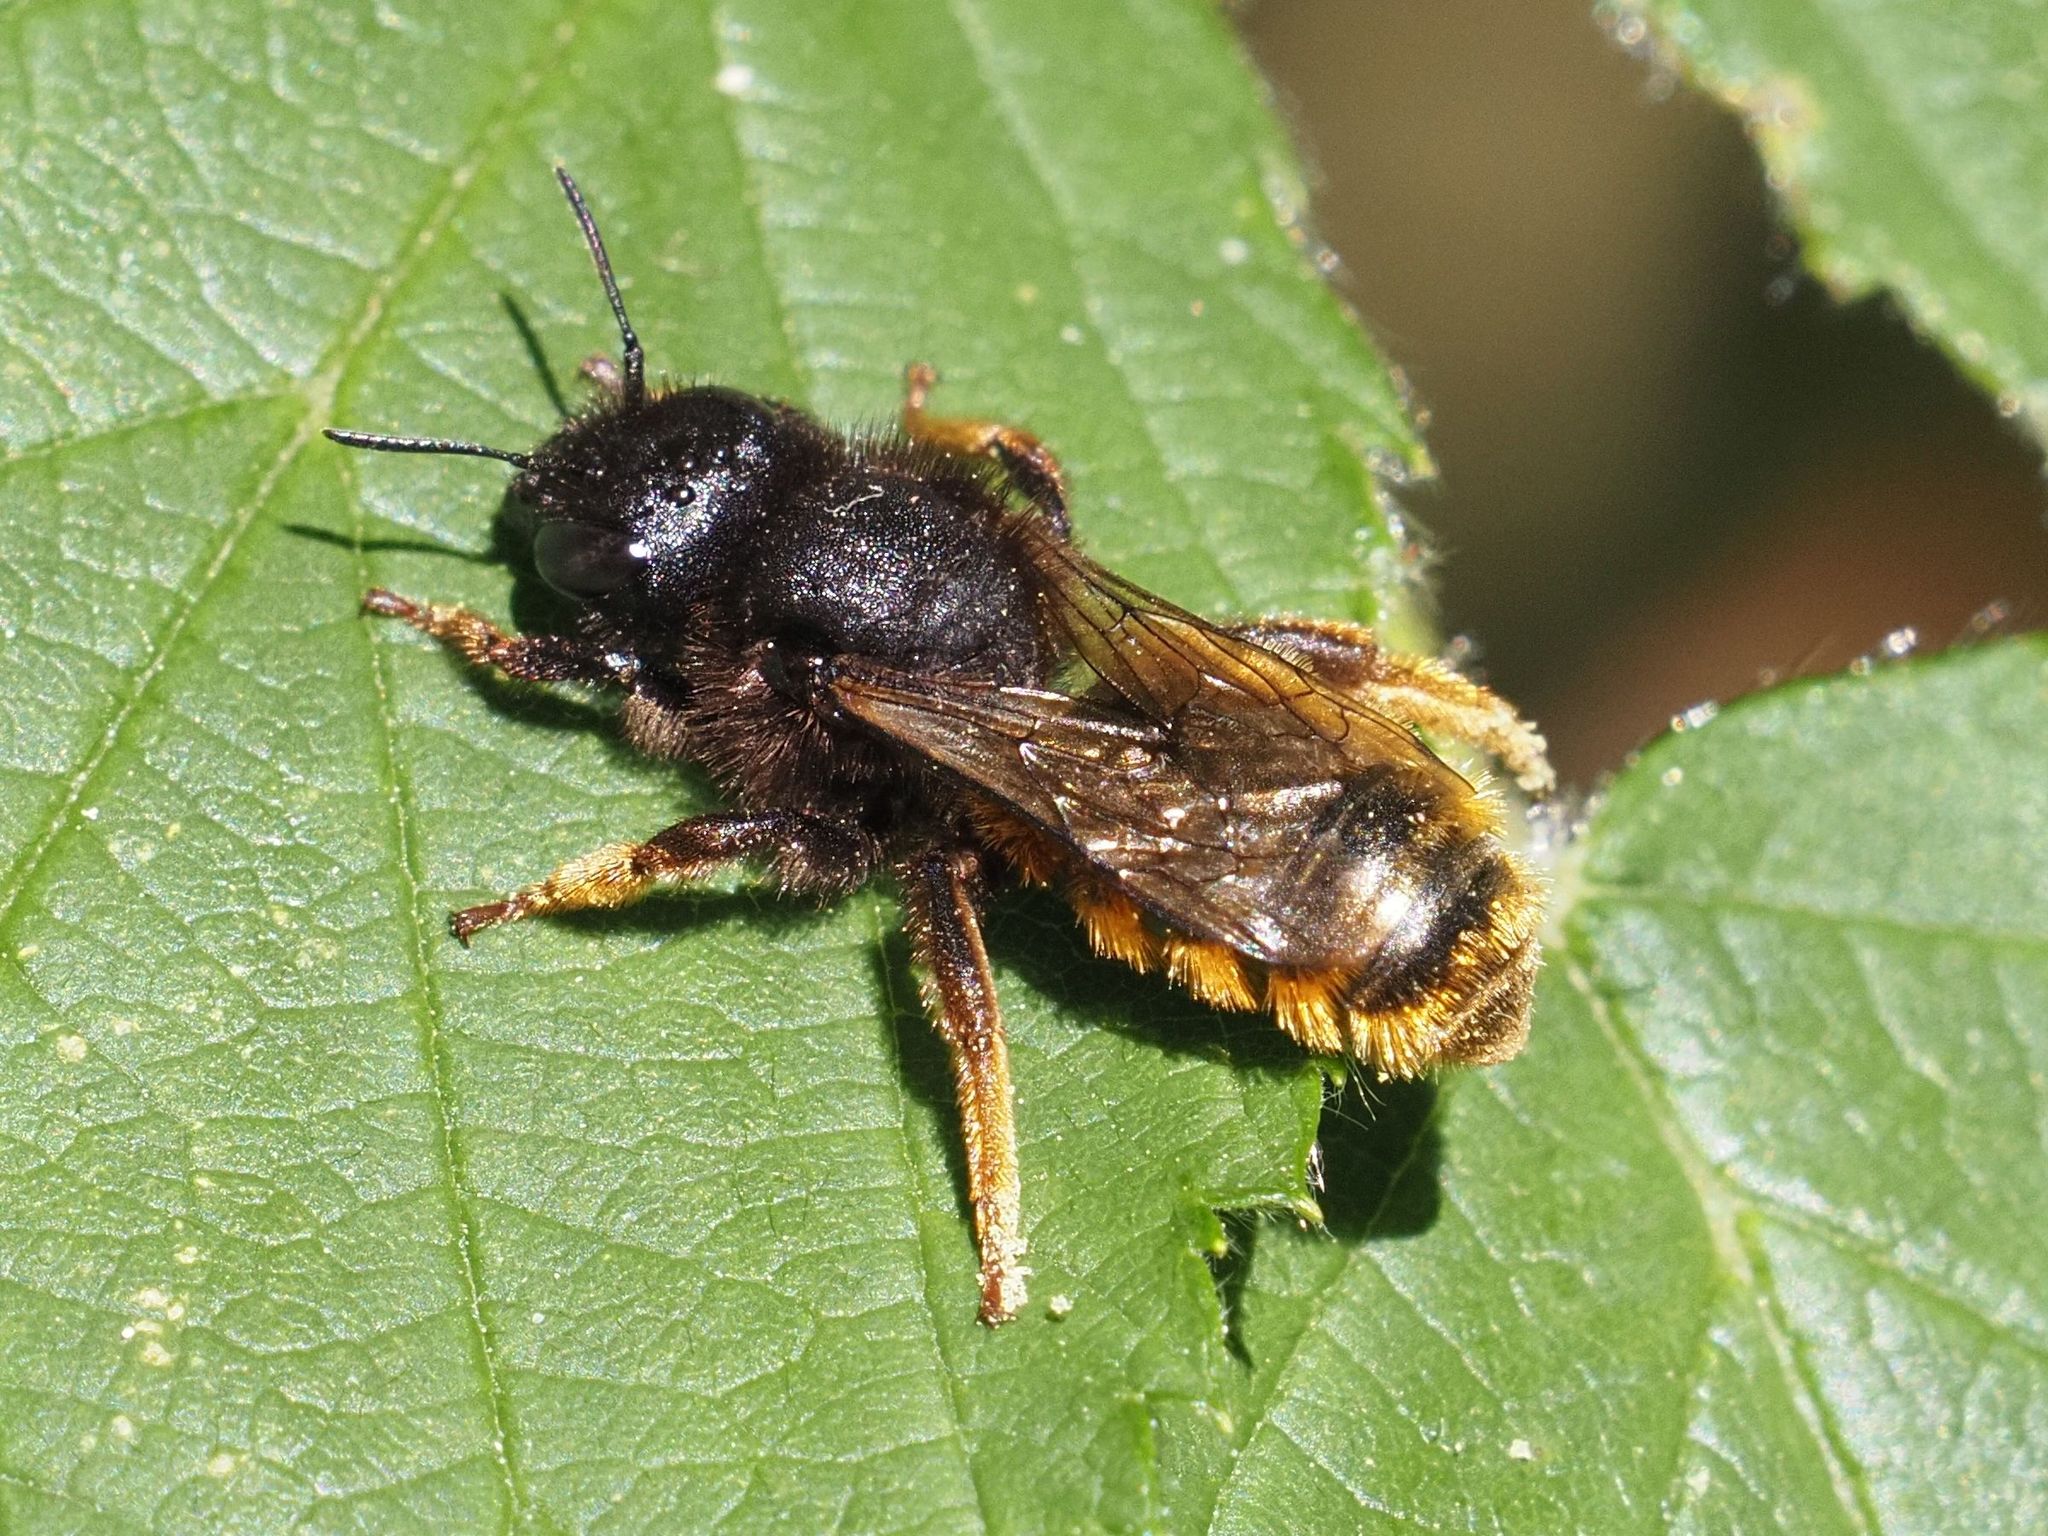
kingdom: Animalia
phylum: Arthropoda
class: Insecta
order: Hymenoptera
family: Megachilidae
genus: Osmia
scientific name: Osmia bicolor
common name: Red-tailed mason bee
